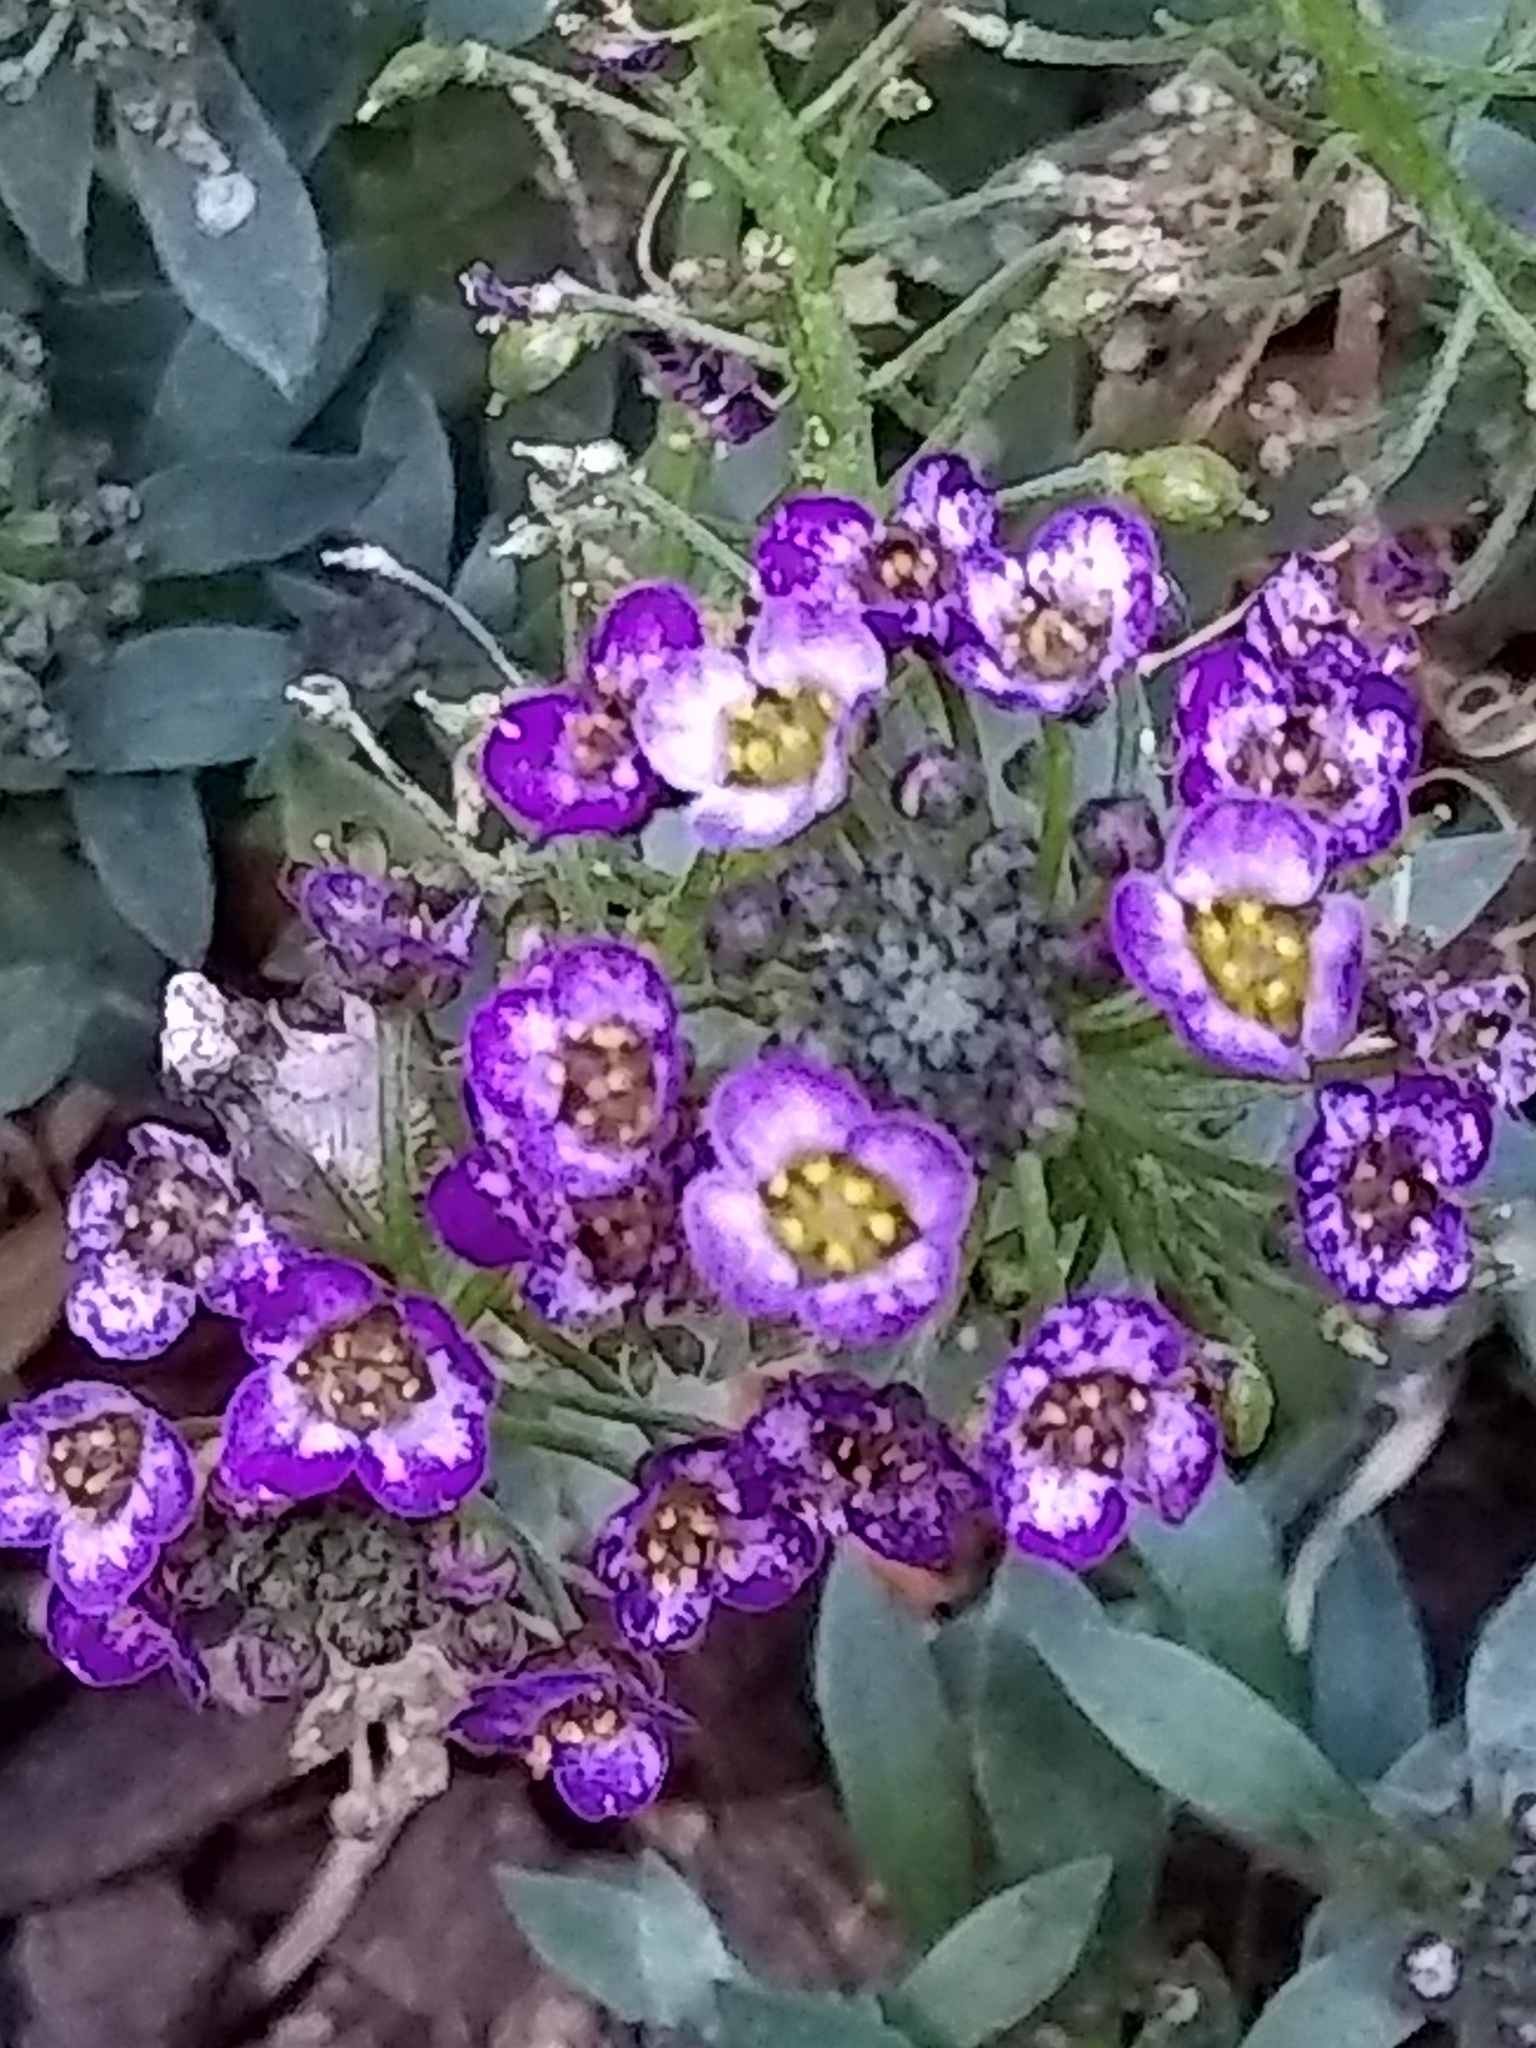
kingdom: Plantae
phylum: Tracheophyta
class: Magnoliopsida
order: Brassicales
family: Brassicaceae
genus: Lobularia
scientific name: Lobularia maritima
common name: Sweet alison
